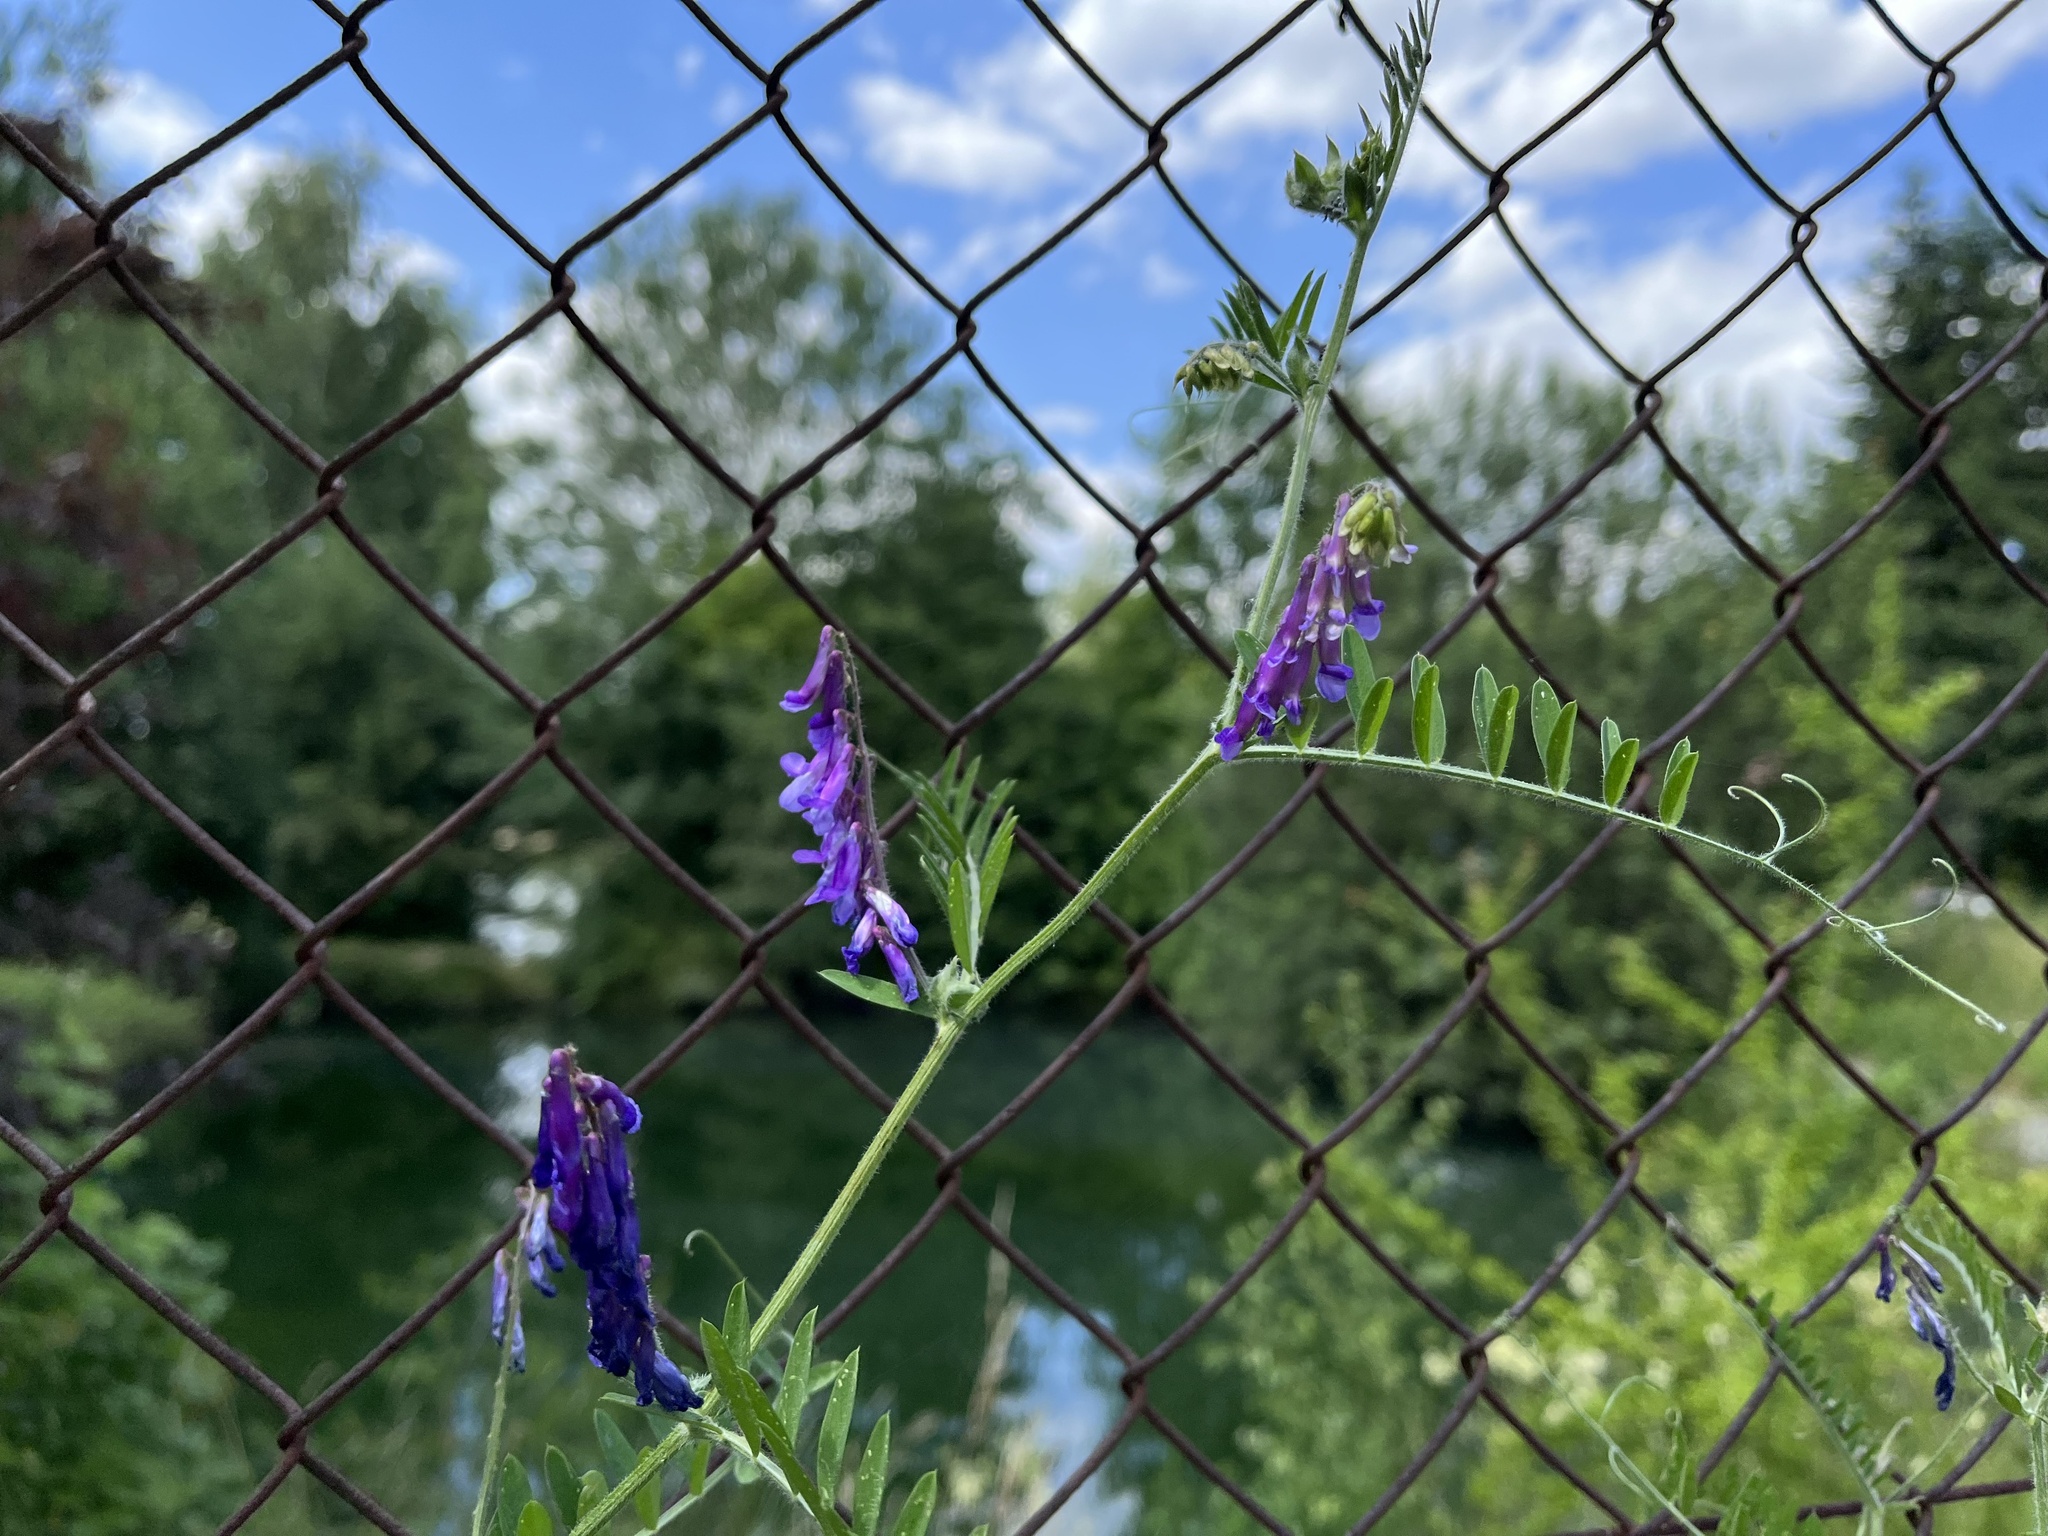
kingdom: Plantae
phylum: Tracheophyta
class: Magnoliopsida
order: Fabales
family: Fabaceae
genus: Vicia
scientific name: Vicia villosa
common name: Fodder vetch
